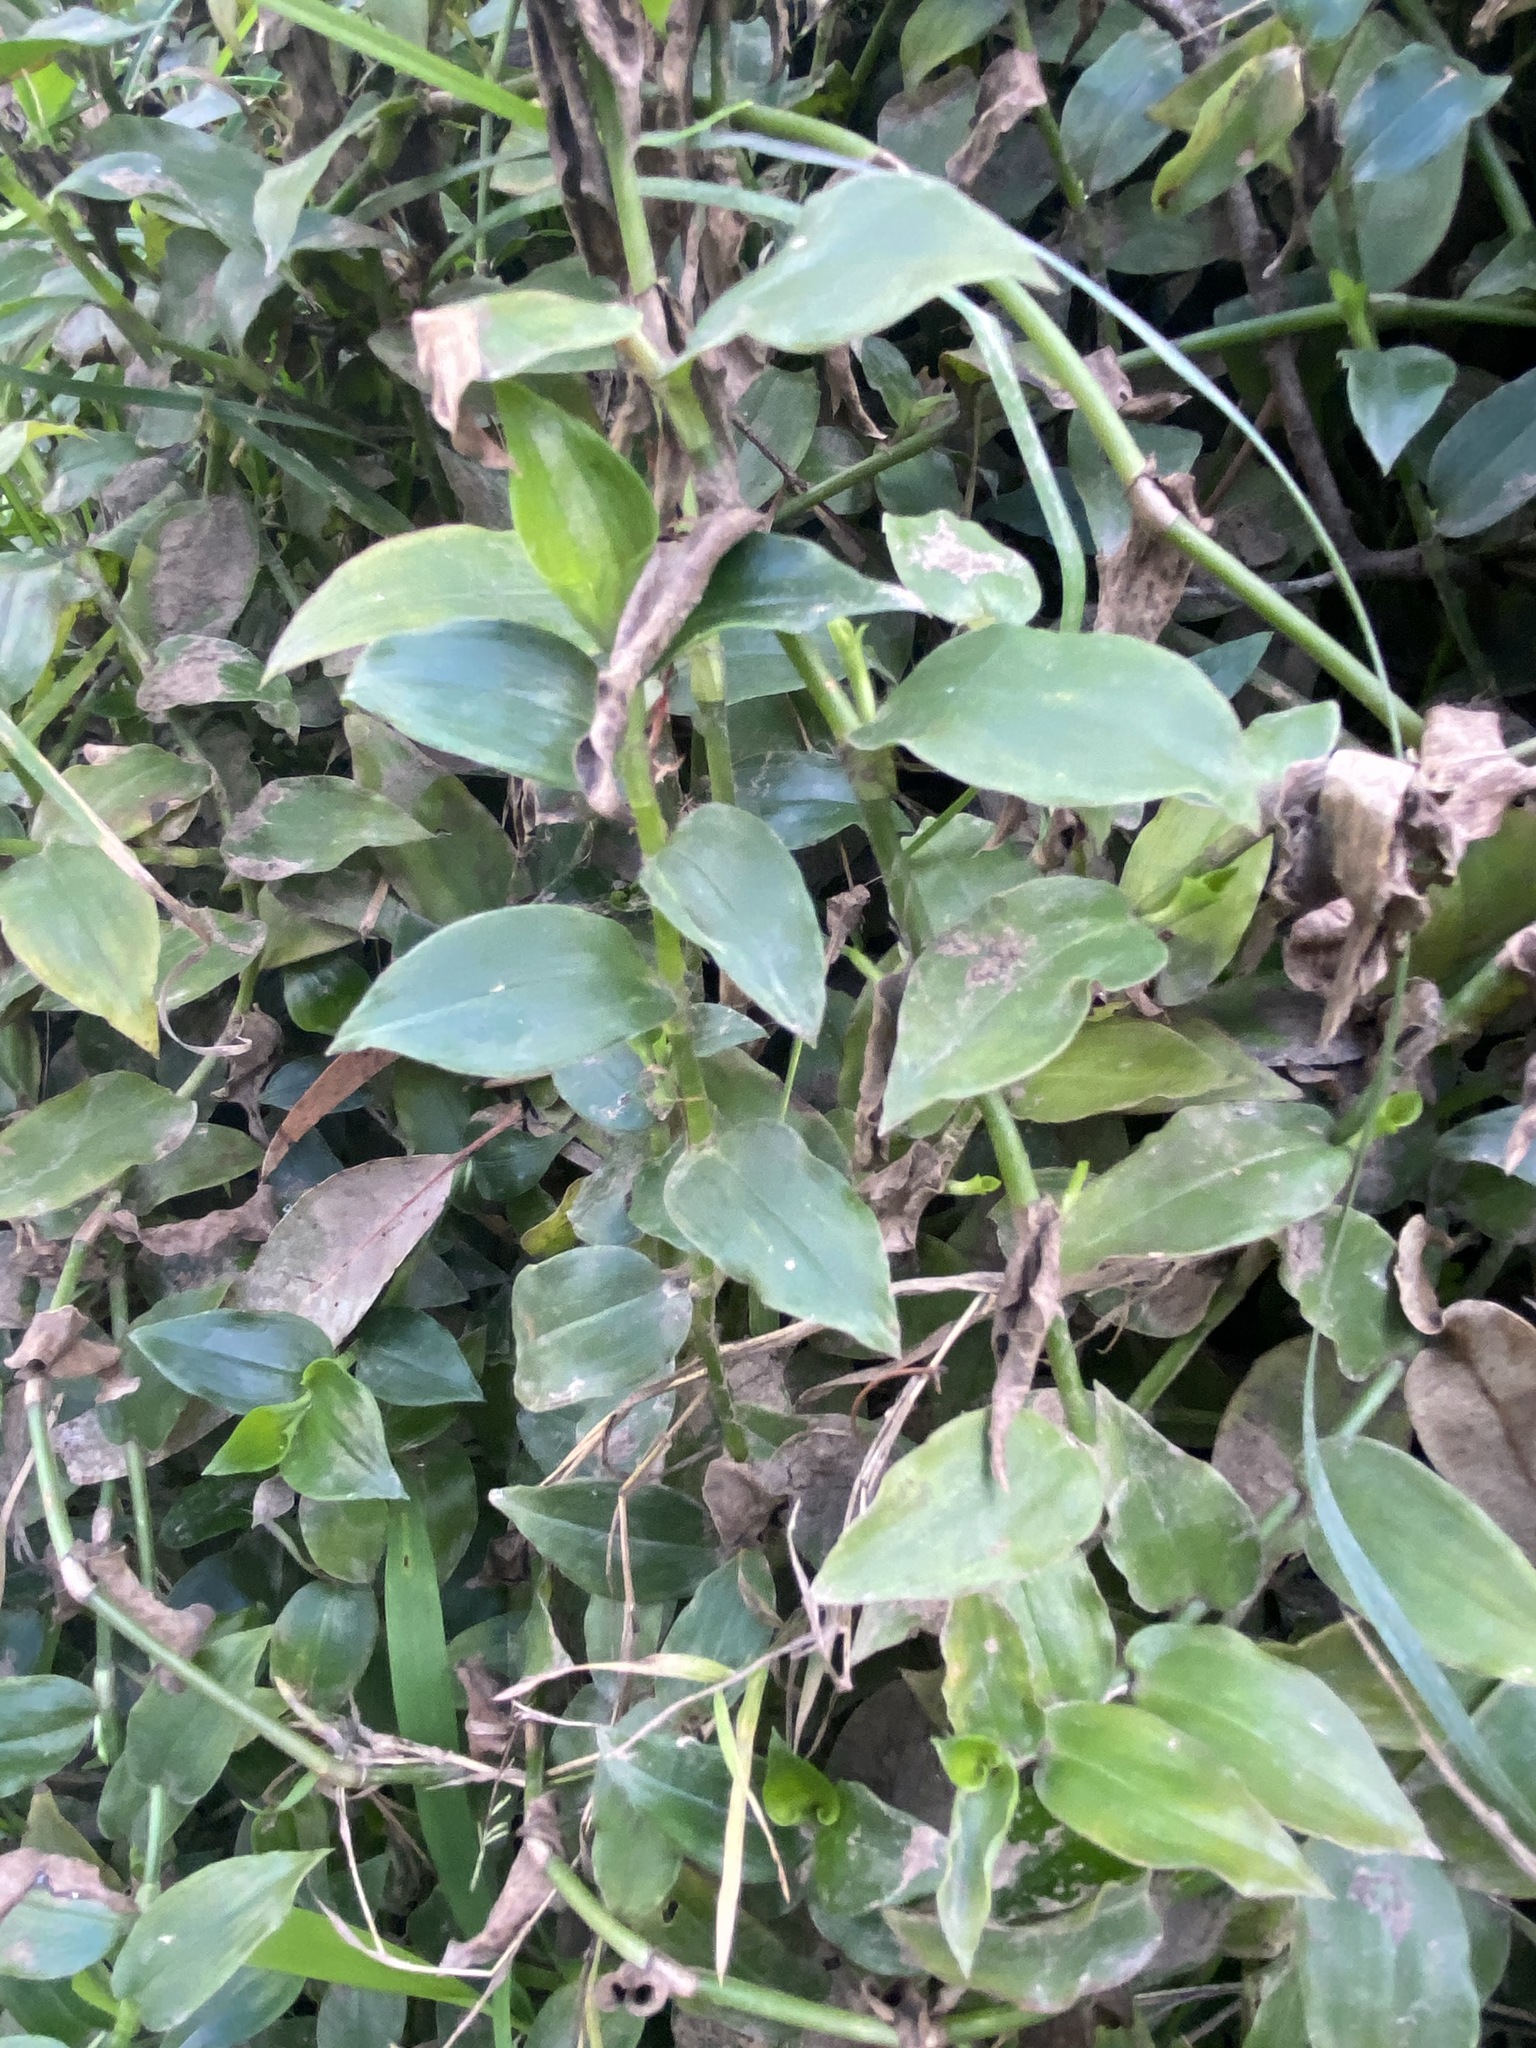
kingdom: Plantae
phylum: Tracheophyta
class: Liliopsida
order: Commelinales
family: Commelinaceae
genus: Tradescantia
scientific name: Tradescantia fluminensis
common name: Wandering-jew
